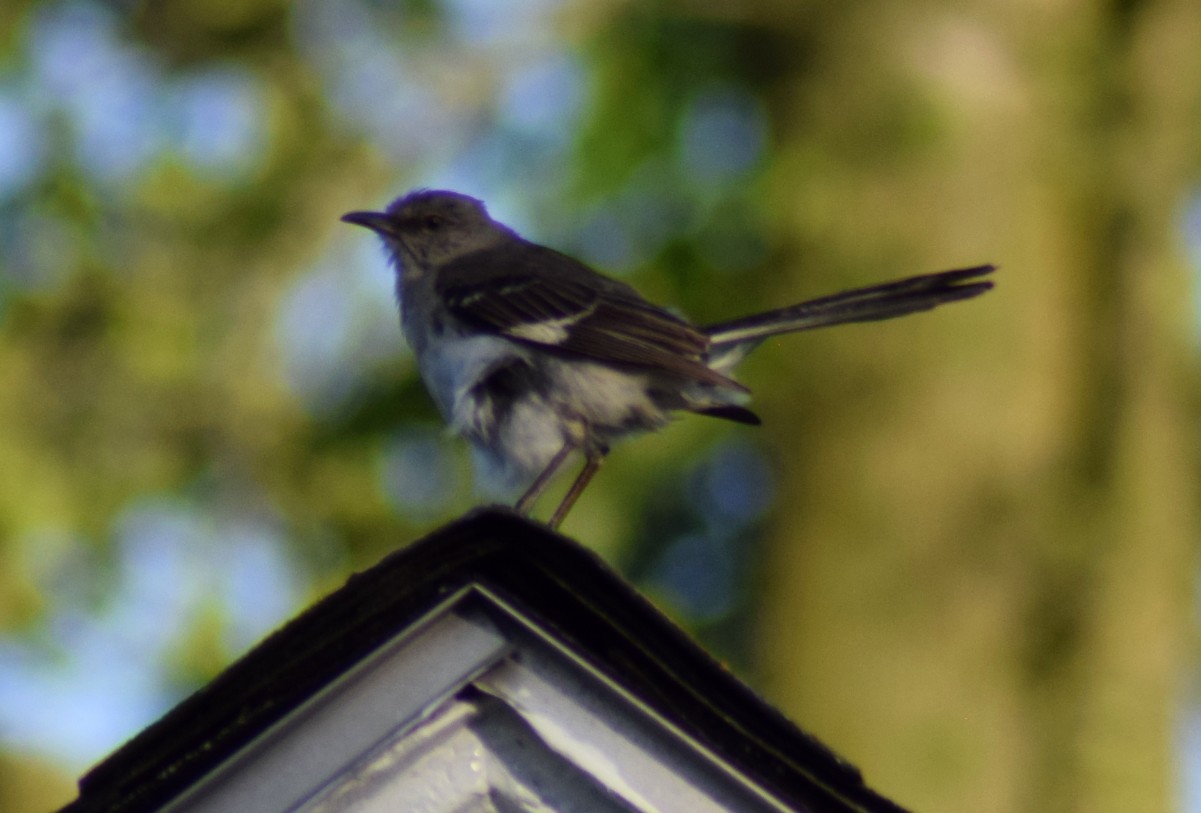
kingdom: Animalia
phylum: Chordata
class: Aves
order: Passeriformes
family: Mimidae
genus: Mimus
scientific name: Mimus polyglottos
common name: Northern mockingbird
